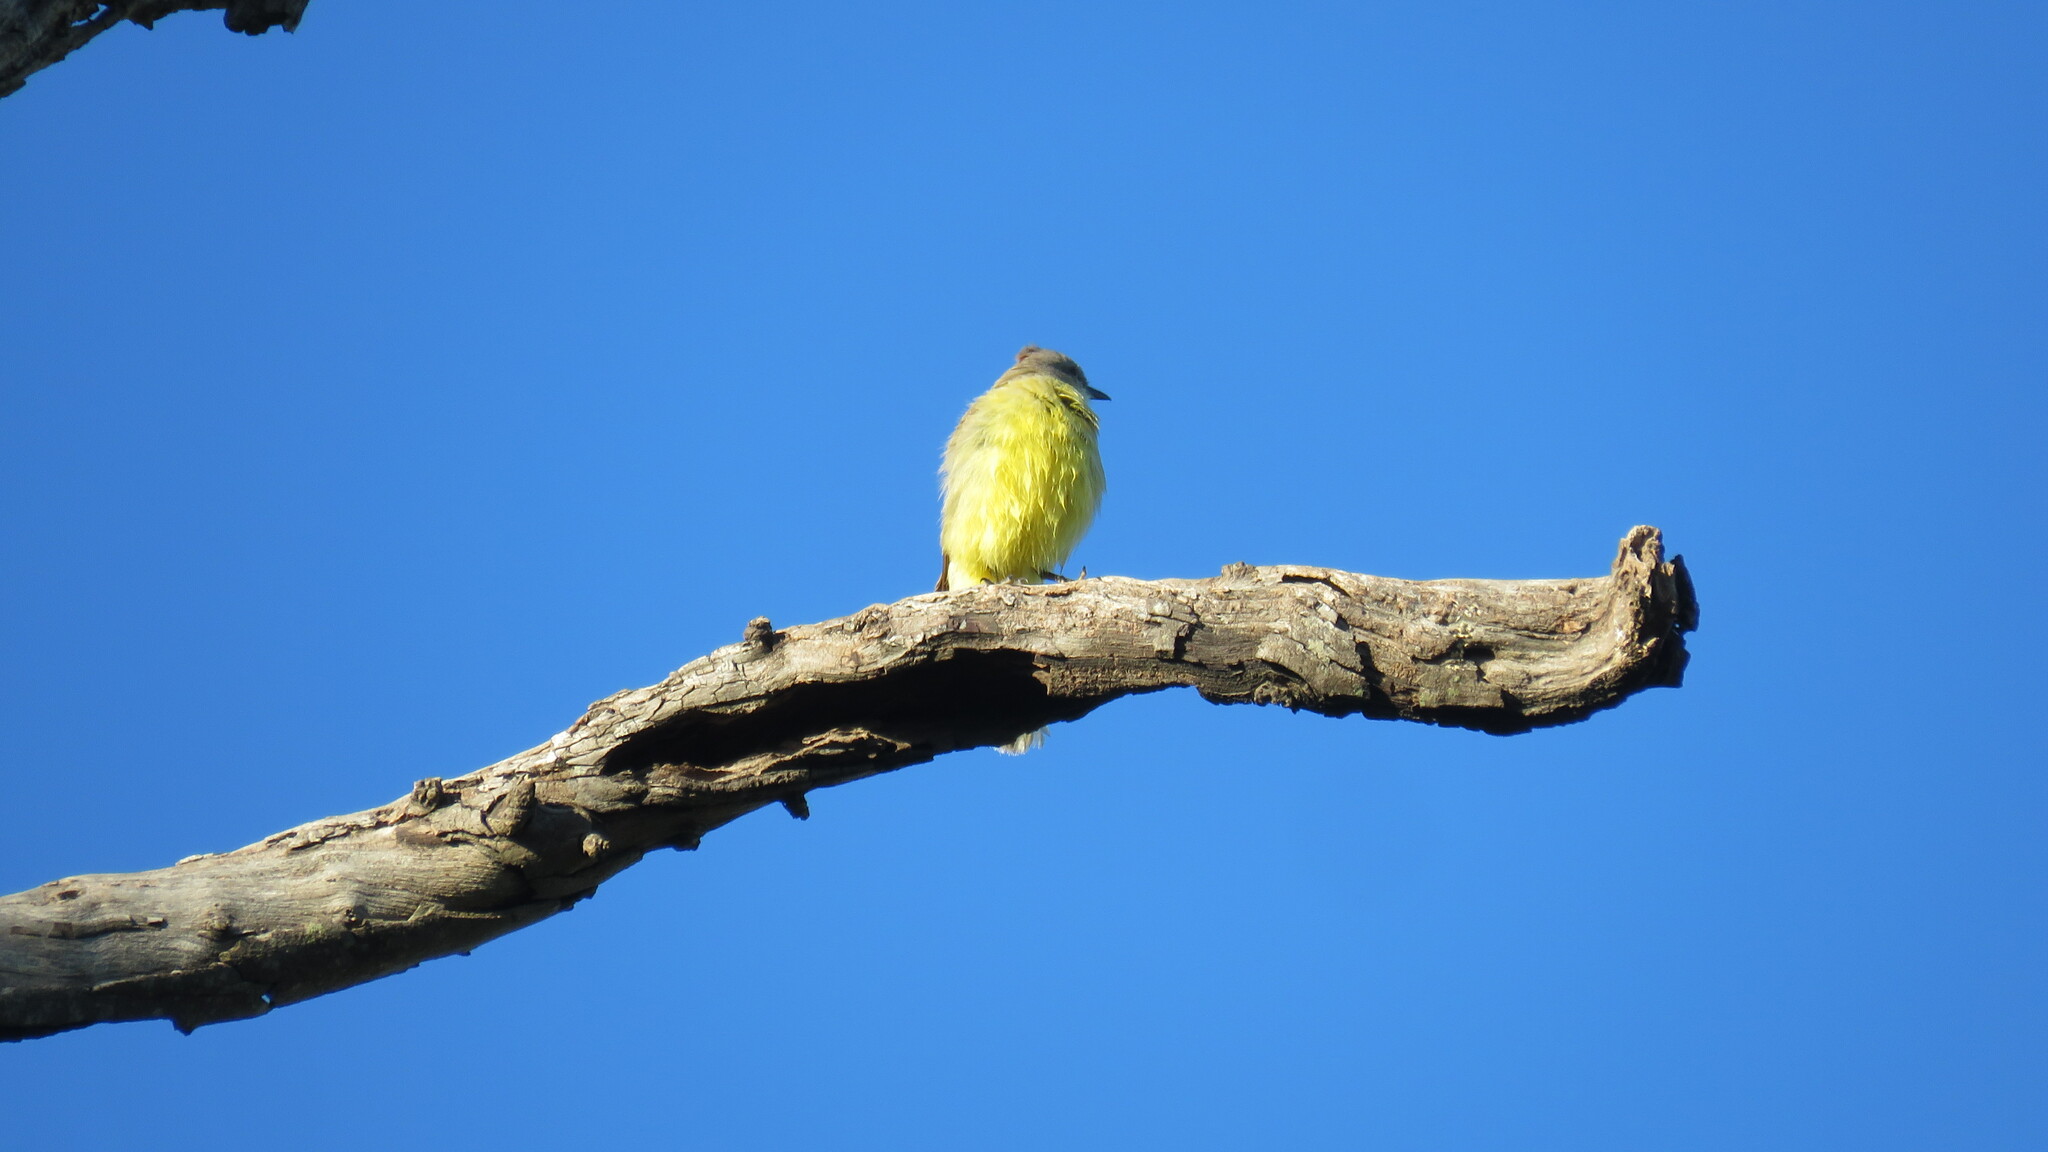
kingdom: Animalia
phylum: Chordata
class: Aves
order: Passeriformes
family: Tyrannidae
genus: Machetornis
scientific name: Machetornis rixosa
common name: Cattle tyrant
